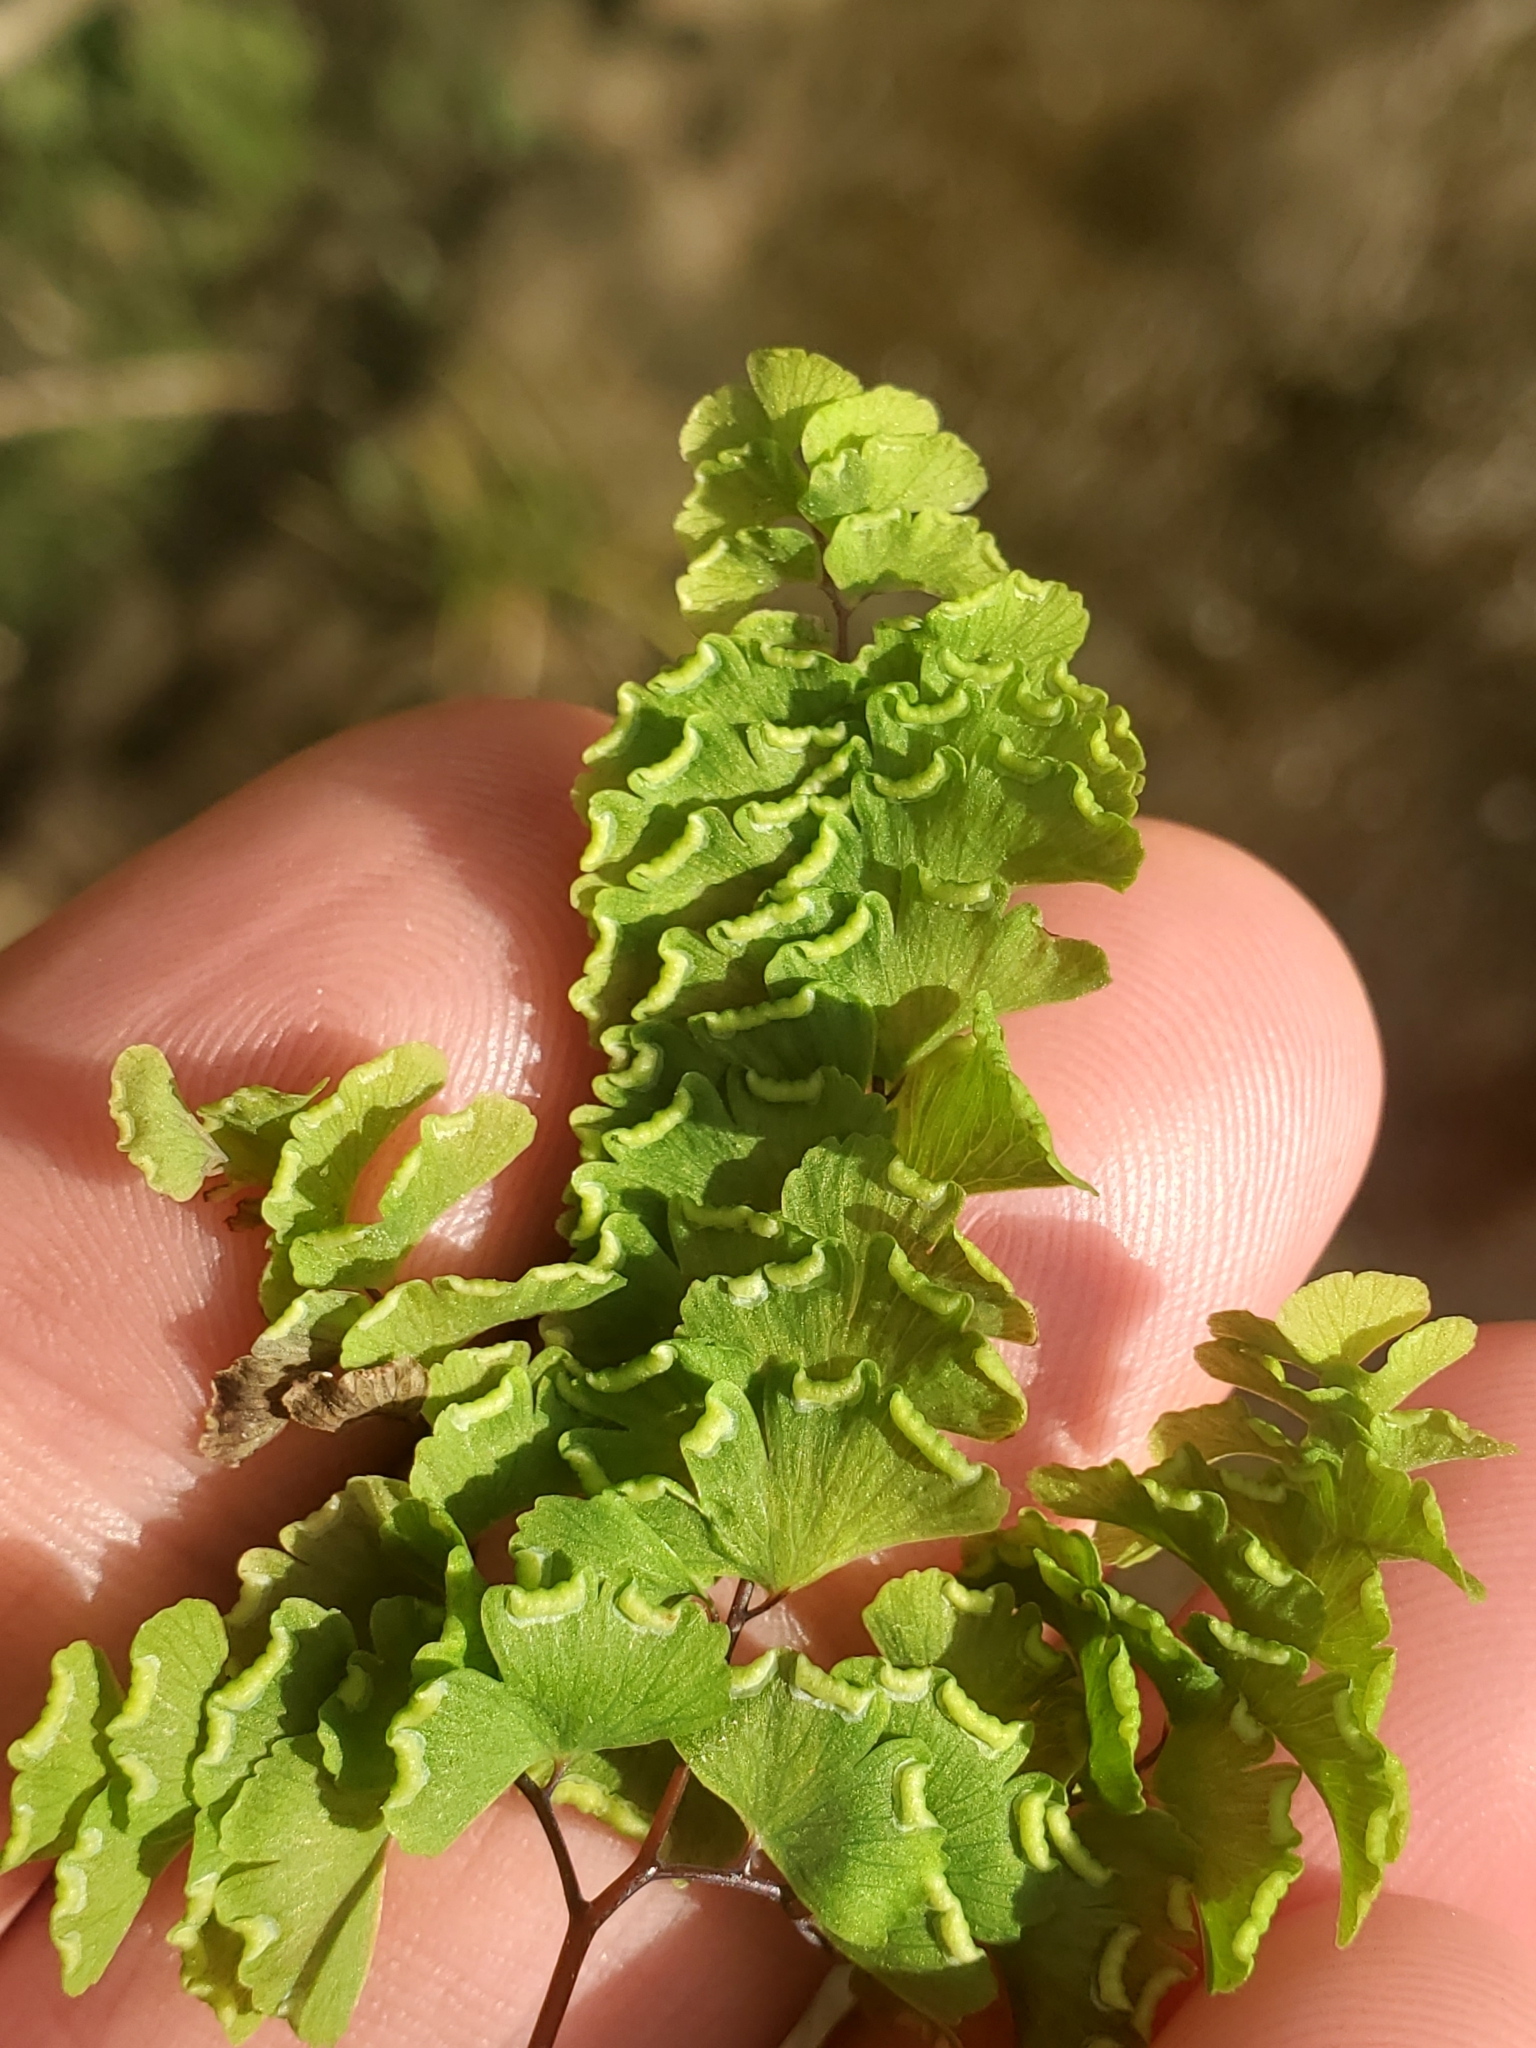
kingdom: Plantae
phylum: Tracheophyta
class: Polypodiopsida
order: Polypodiales
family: Pteridaceae
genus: Adiantum
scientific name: Adiantum aleuticum
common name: Aleutian maidenhair fern
